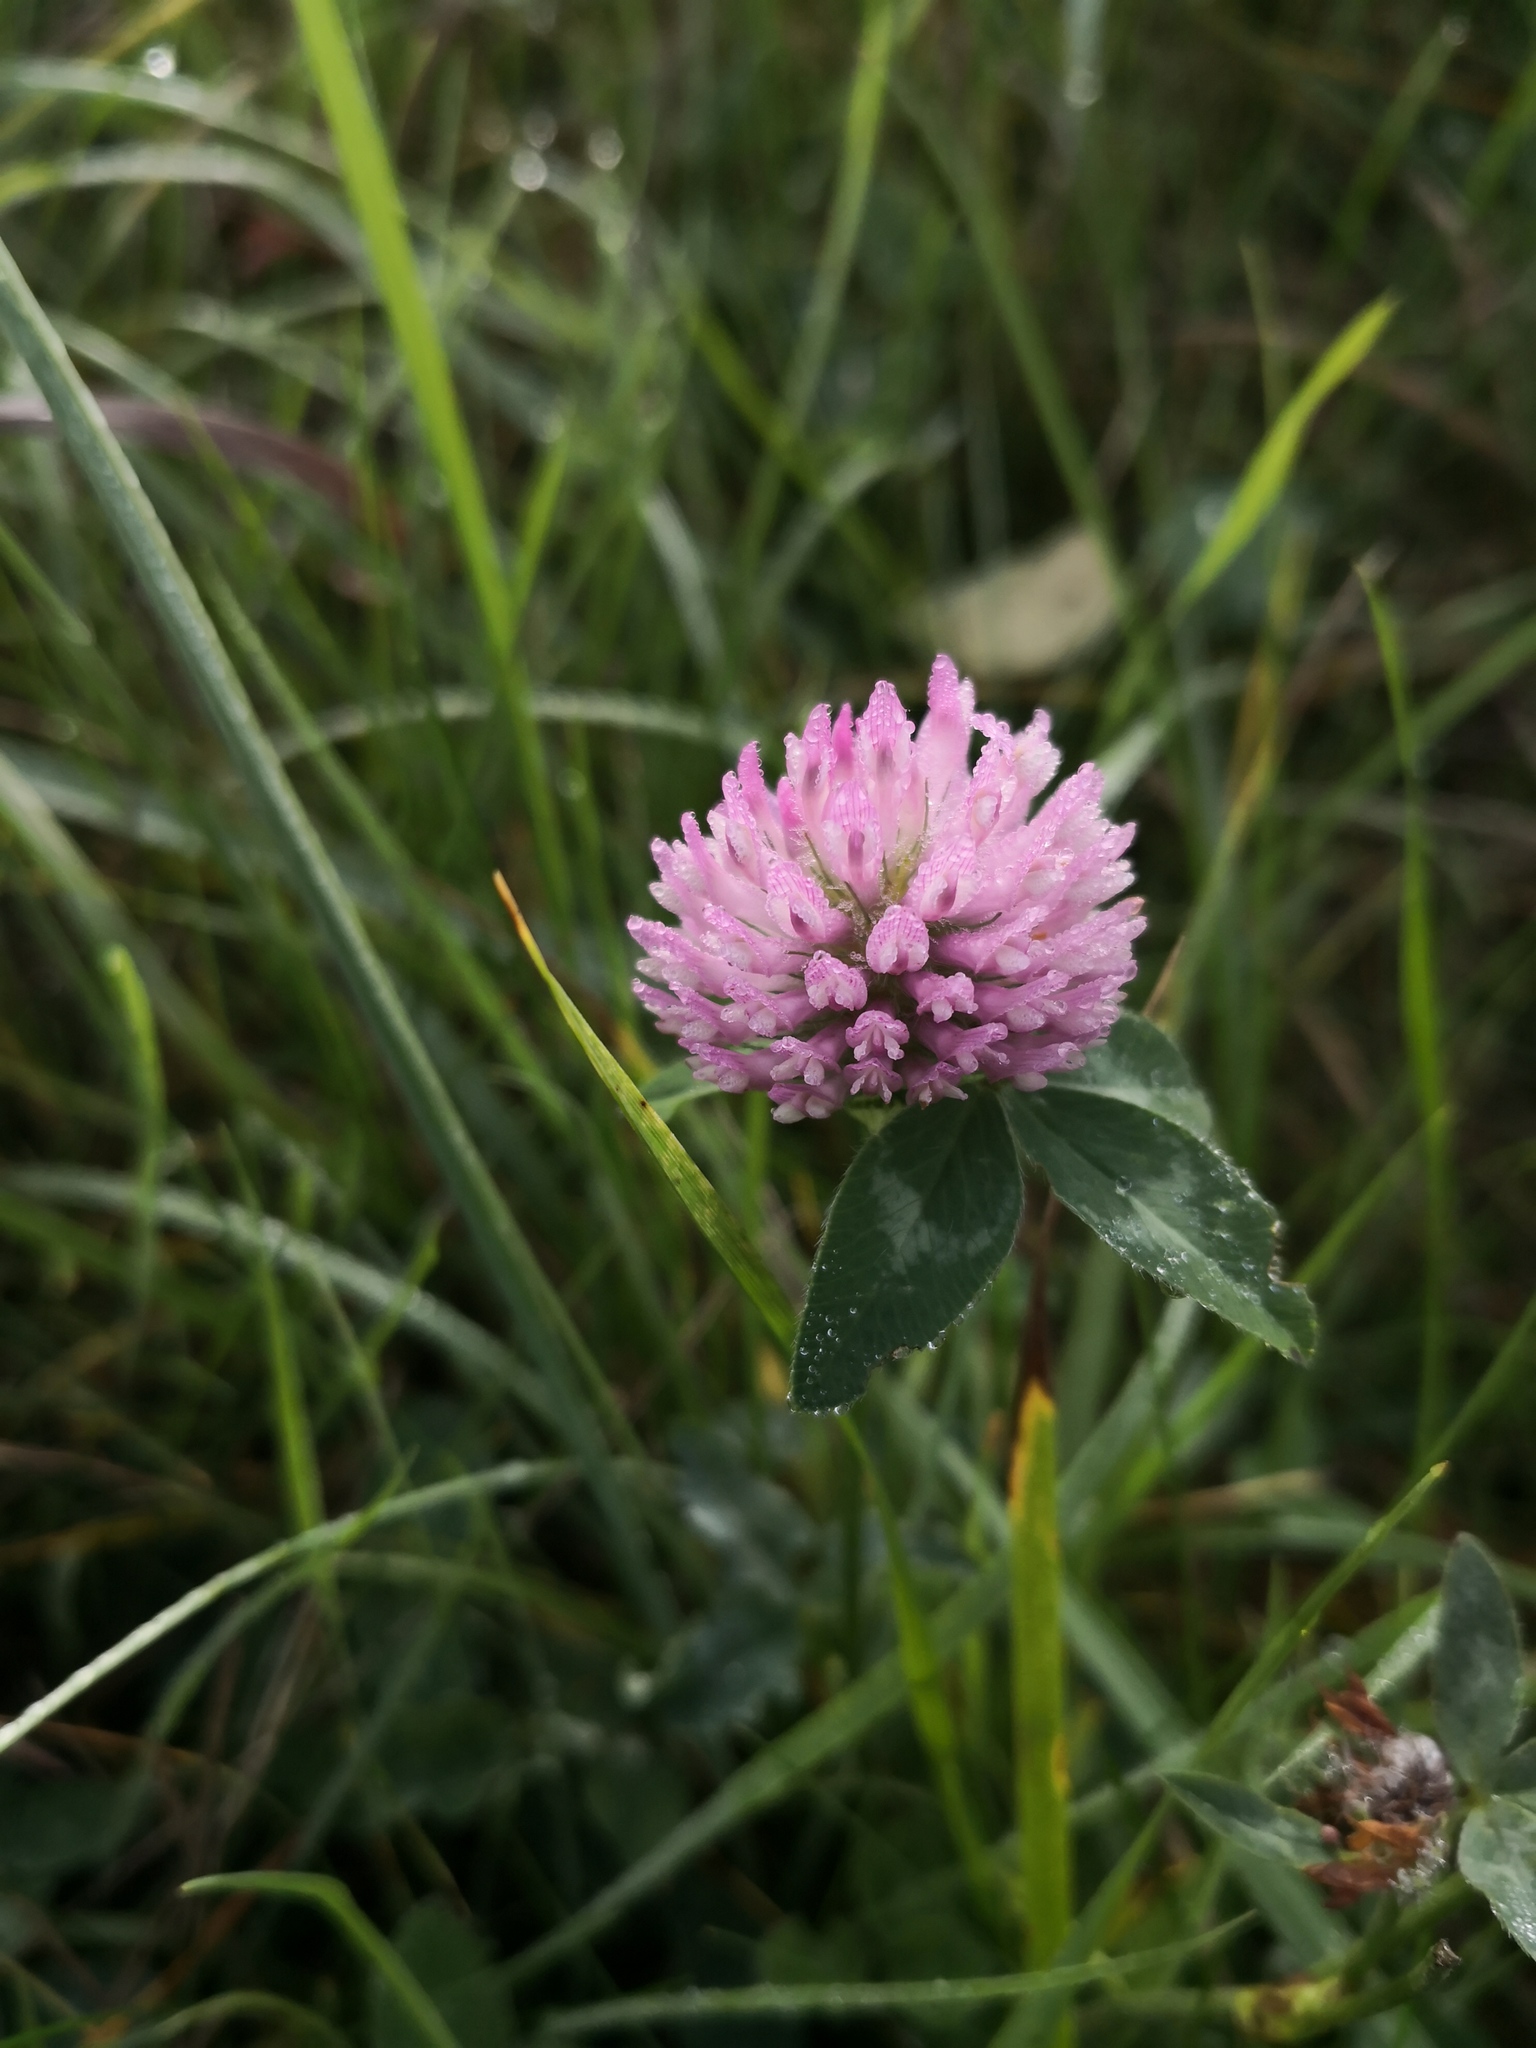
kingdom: Plantae
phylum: Tracheophyta
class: Magnoliopsida
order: Fabales
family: Fabaceae
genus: Trifolium
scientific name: Trifolium pratense
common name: Red clover
